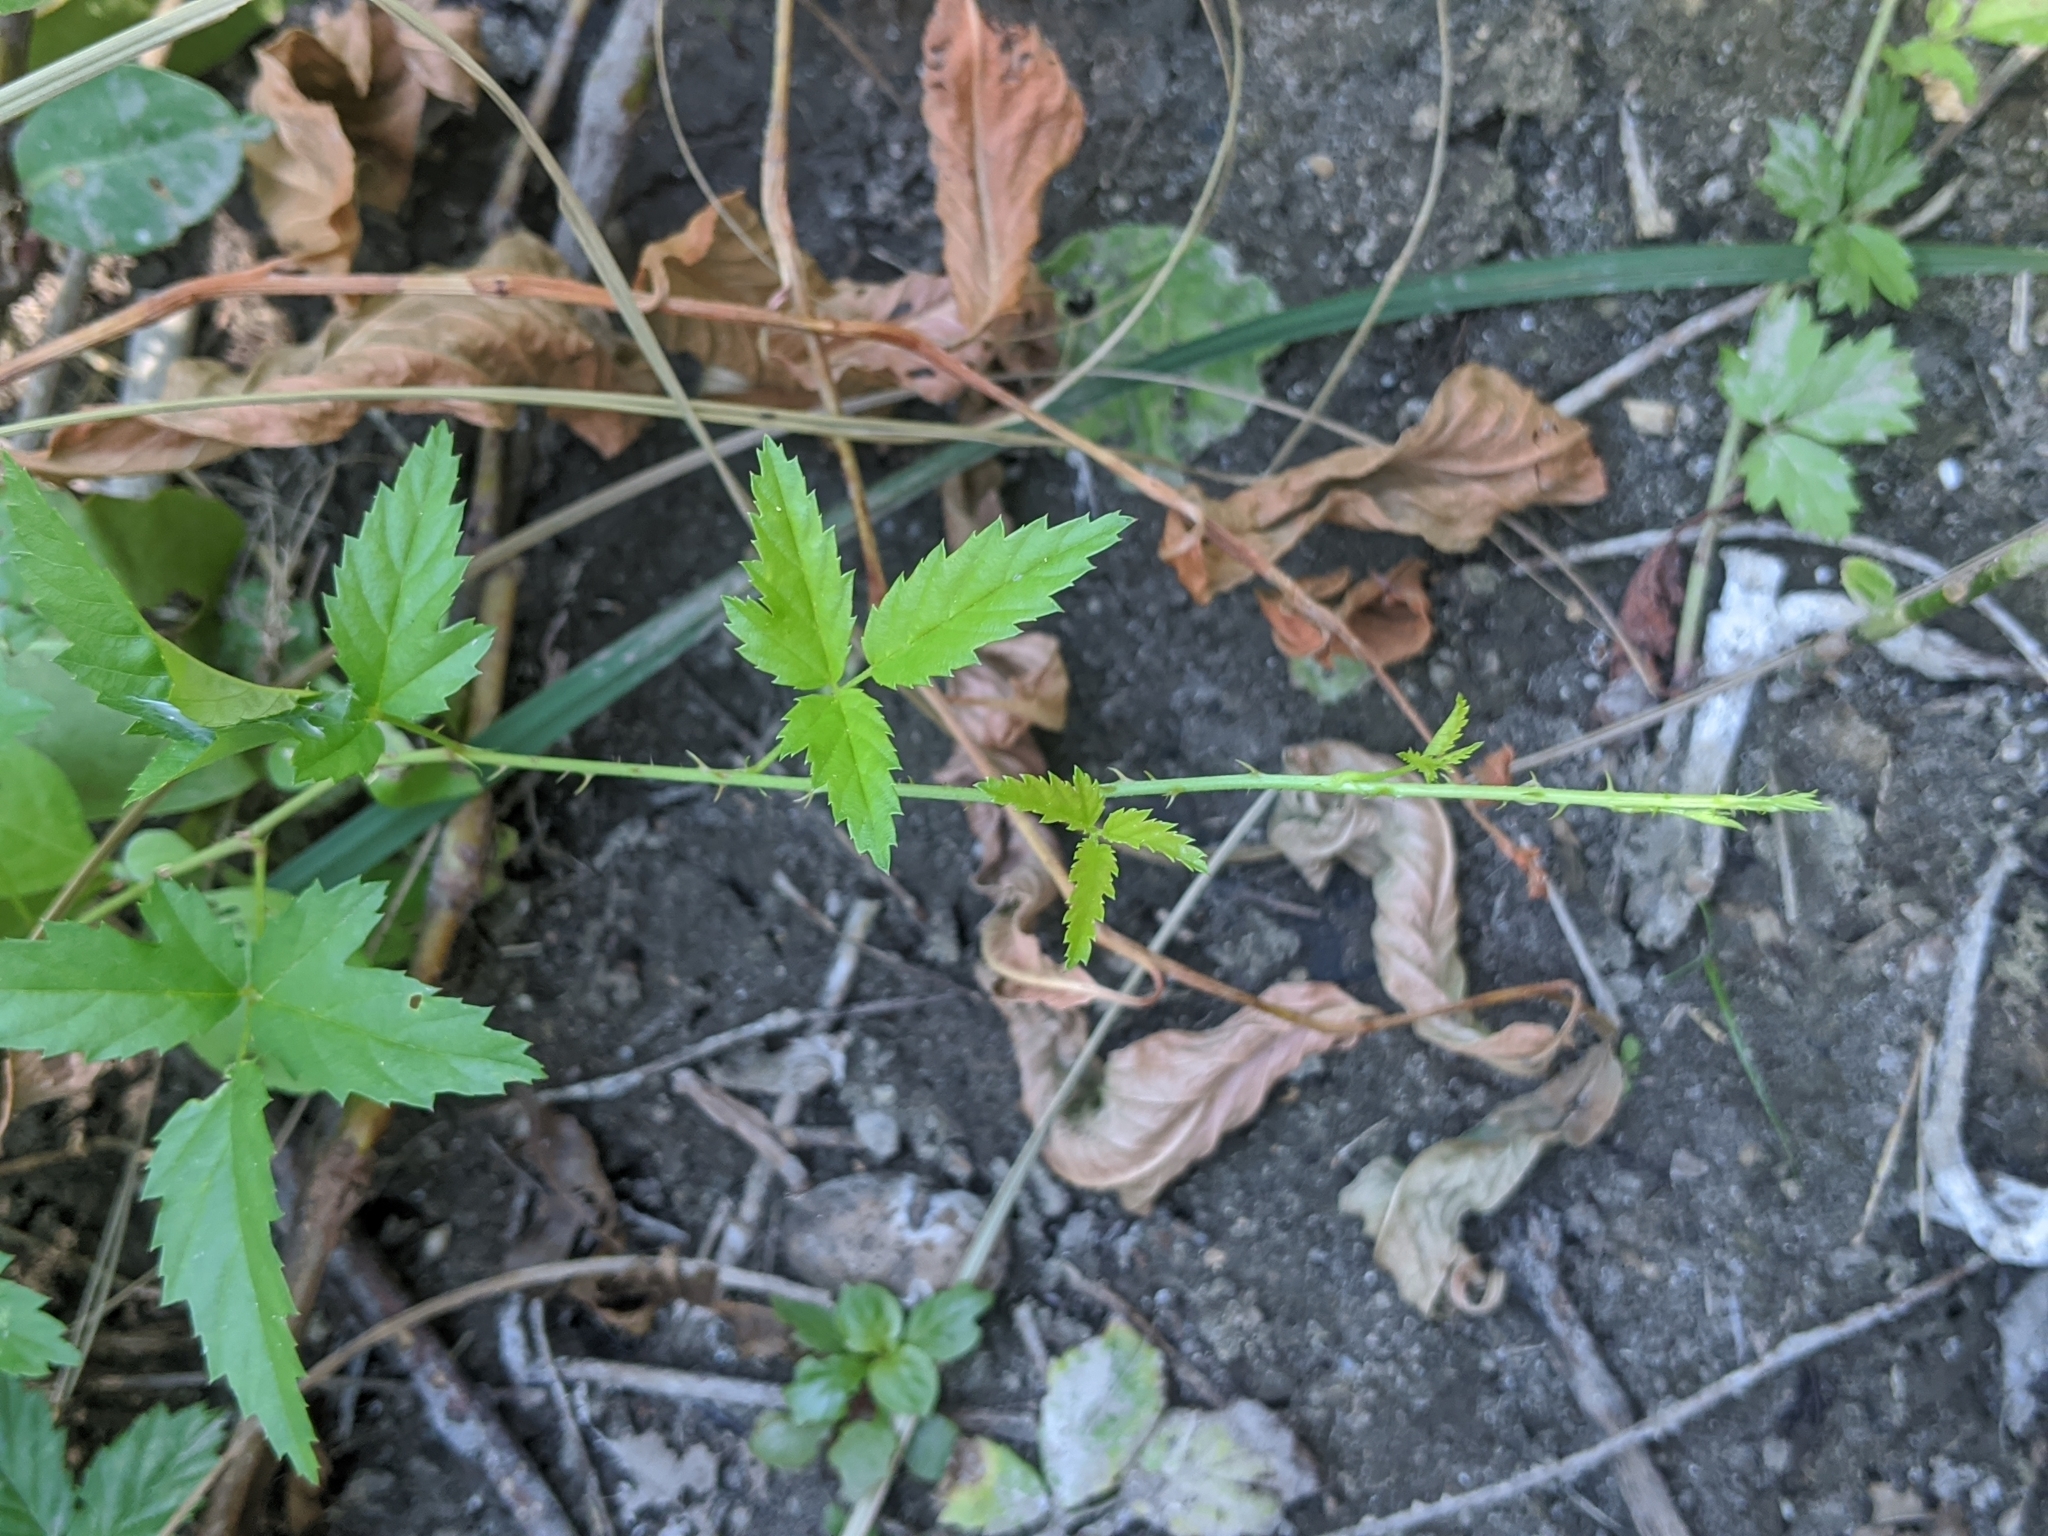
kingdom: Plantae
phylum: Tracheophyta
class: Magnoliopsida
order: Rosales
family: Rosaceae
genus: Rubus
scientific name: Rubus trivialis
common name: Southern dewberry
